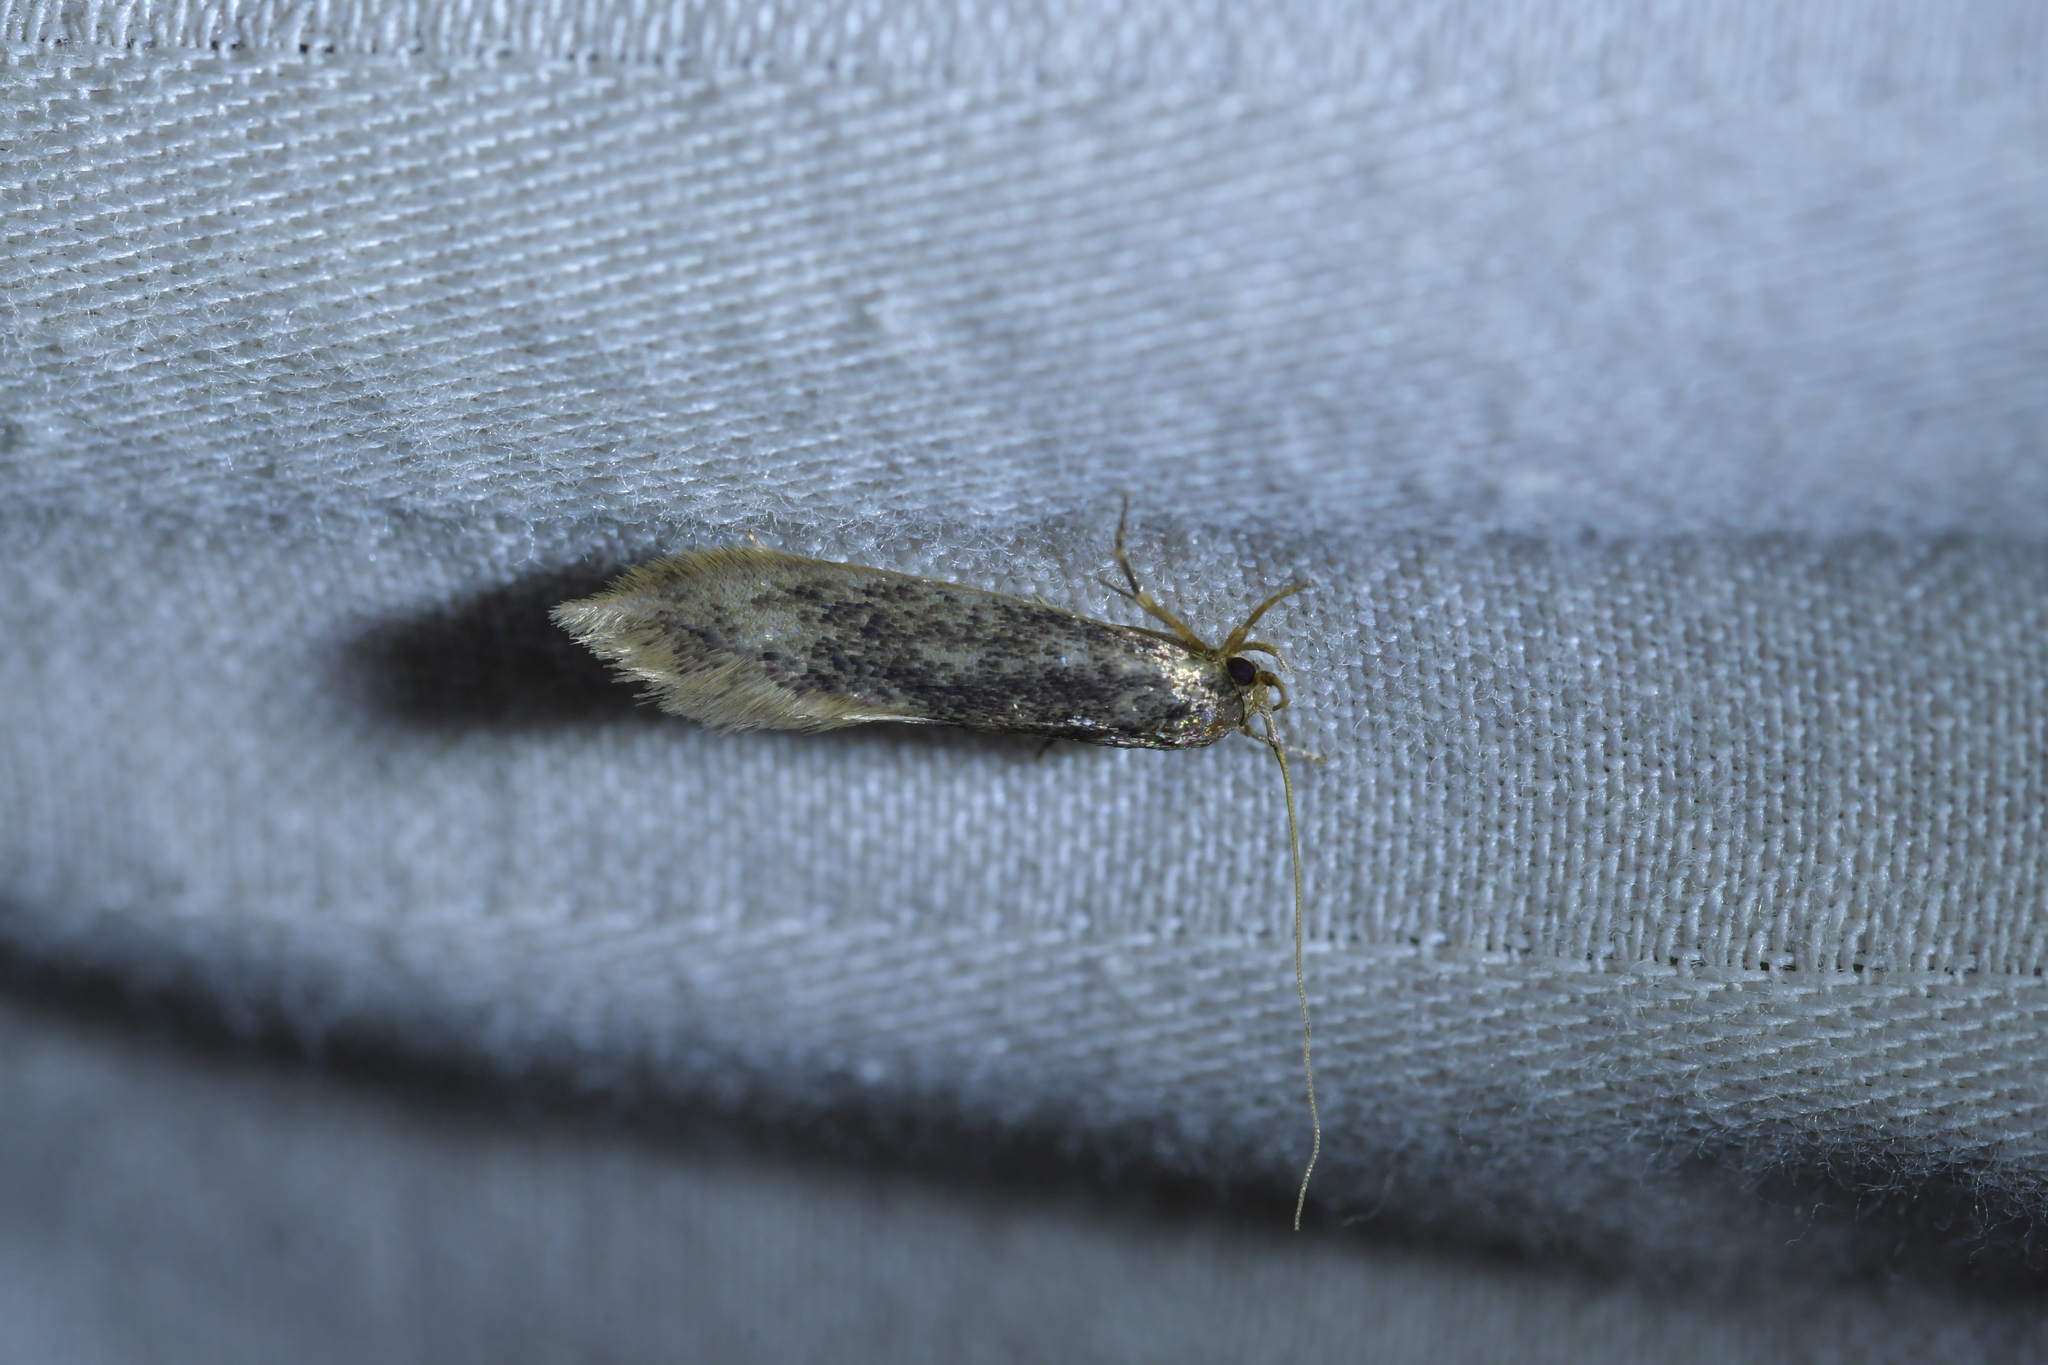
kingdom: Animalia
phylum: Arthropoda
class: Insecta
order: Lepidoptera
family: Tineidae
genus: Opogona
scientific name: Opogona omoscopa
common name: Moth
